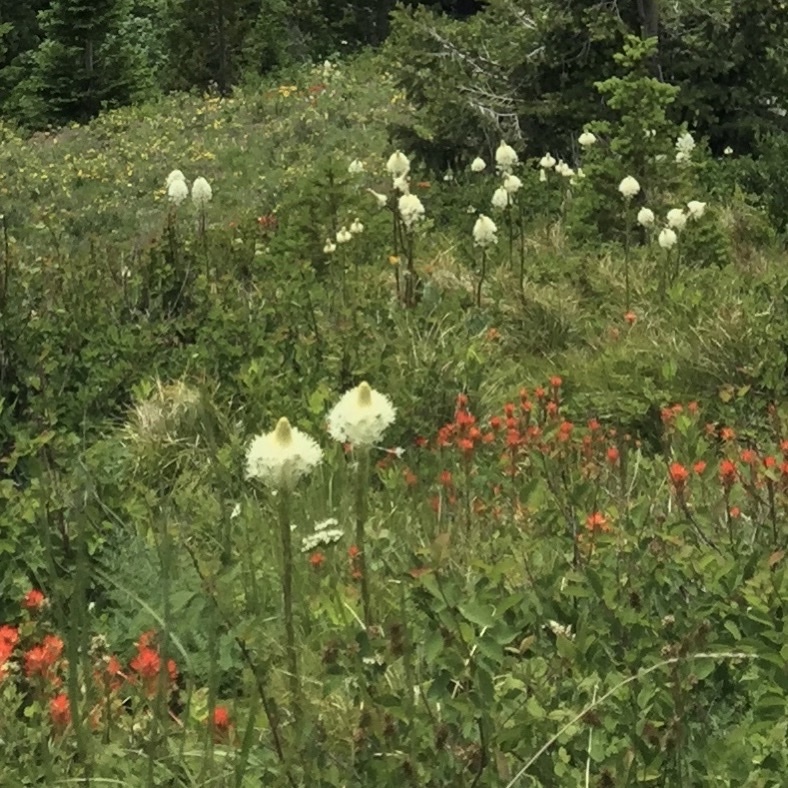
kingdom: Plantae
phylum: Tracheophyta
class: Liliopsida
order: Liliales
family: Melanthiaceae
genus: Xerophyllum
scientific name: Xerophyllum tenax
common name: Bear-grass
